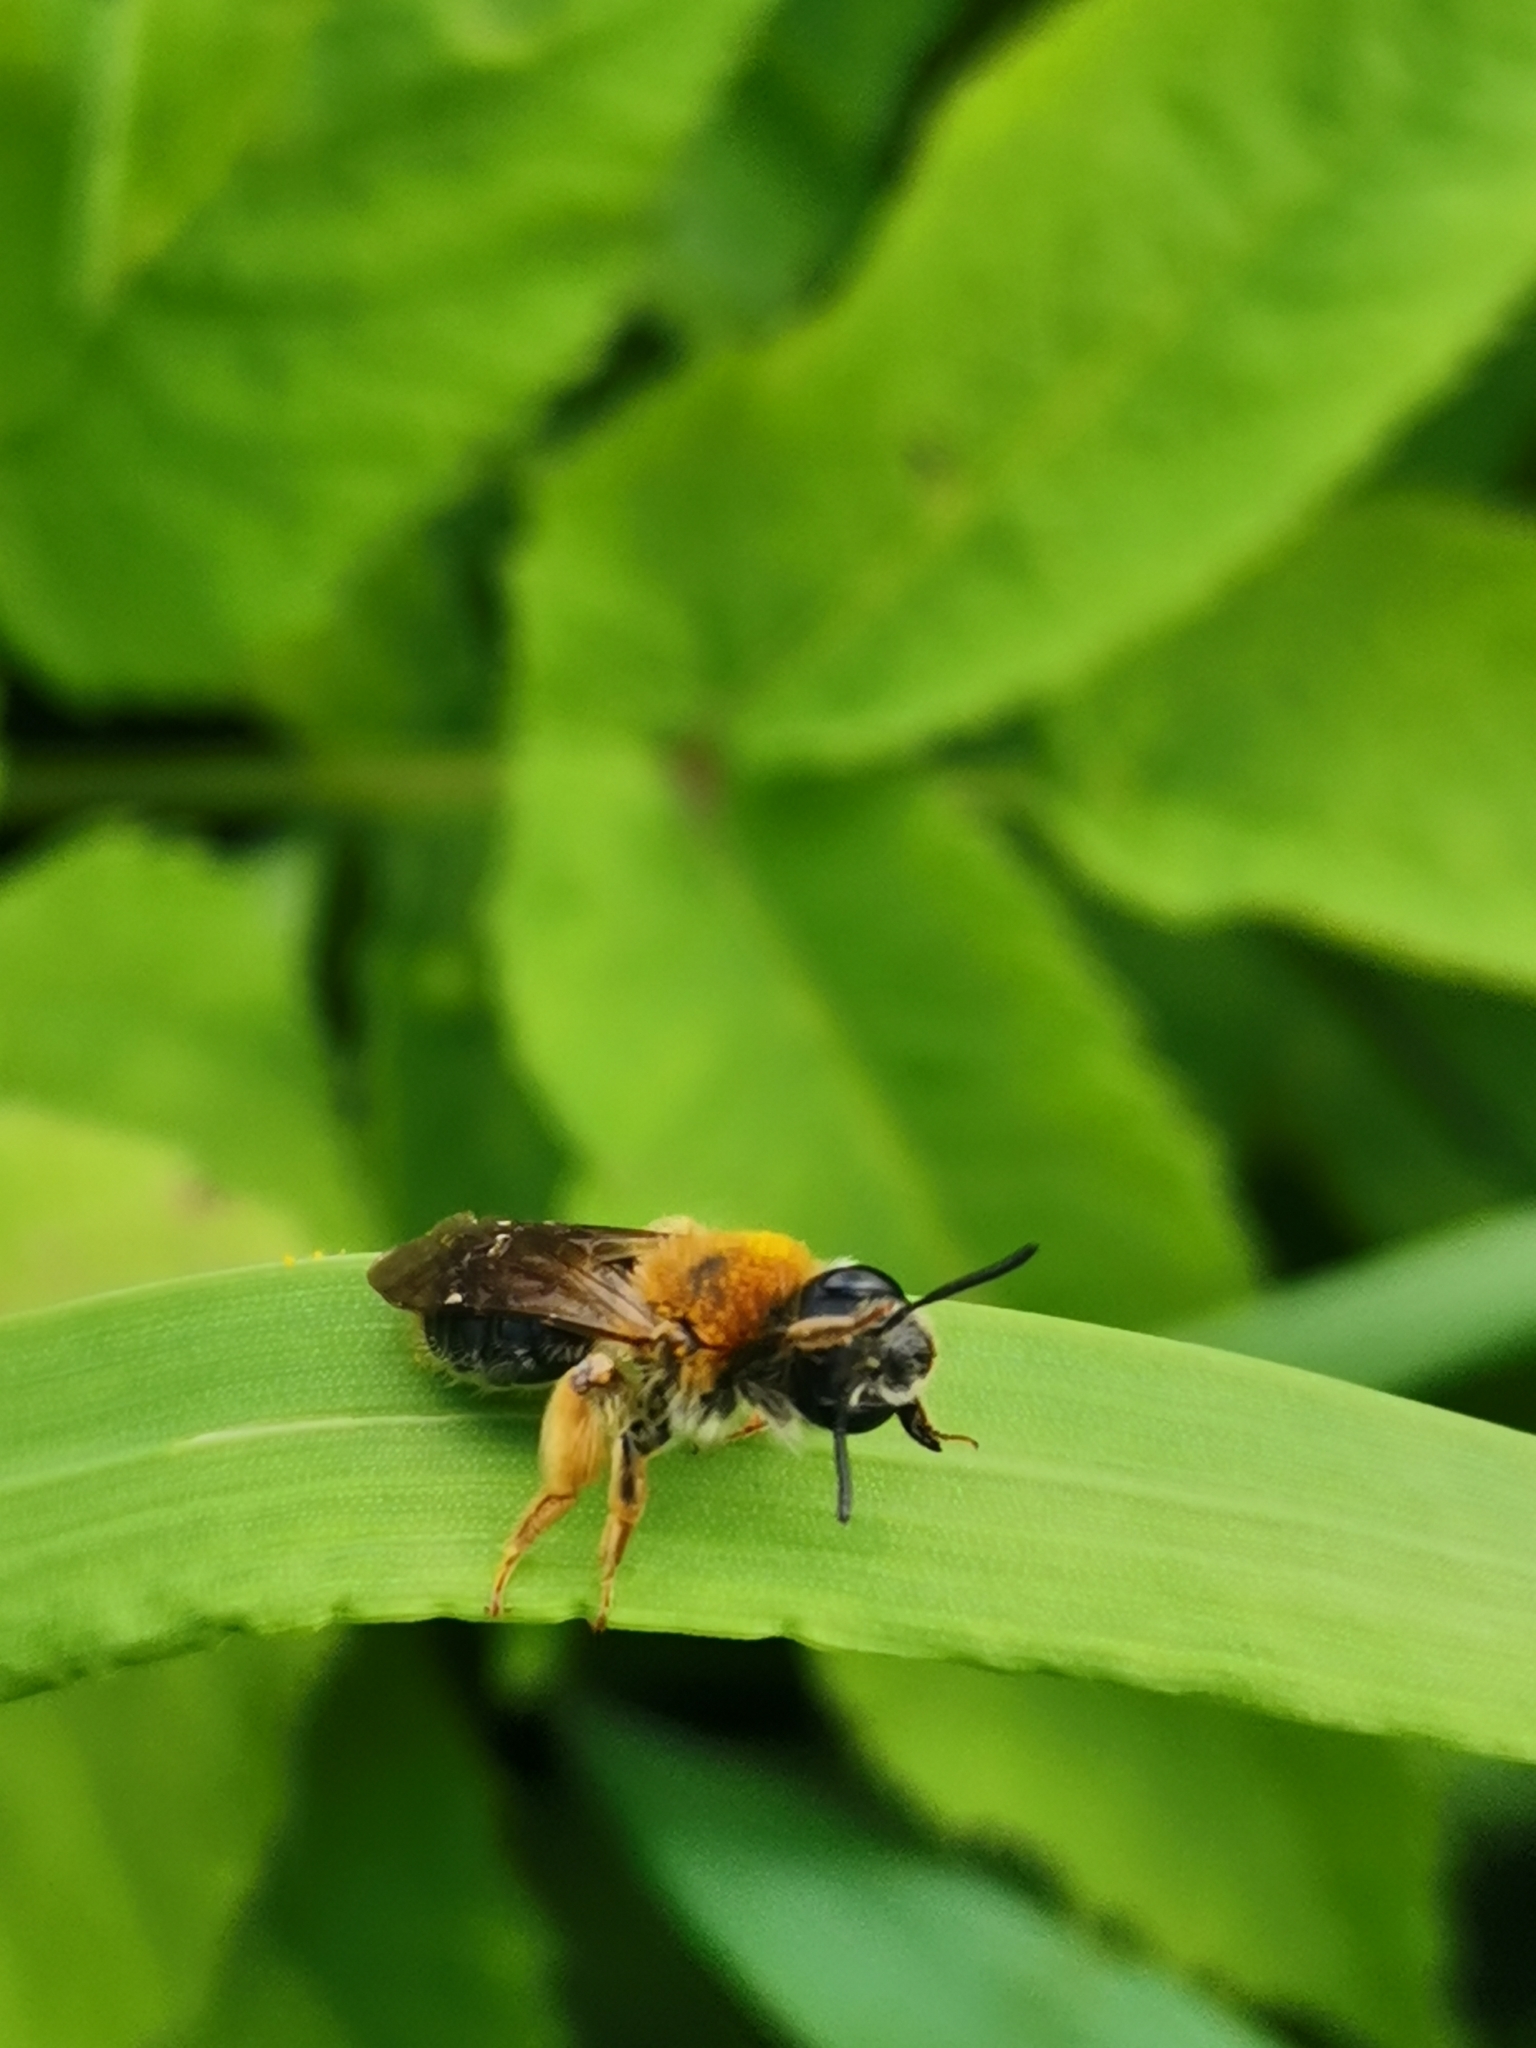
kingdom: Animalia
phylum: Arthropoda
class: Insecta
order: Hymenoptera
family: Andrenidae
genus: Andrena
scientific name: Andrena haemorrhoa
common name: Early mining bee
